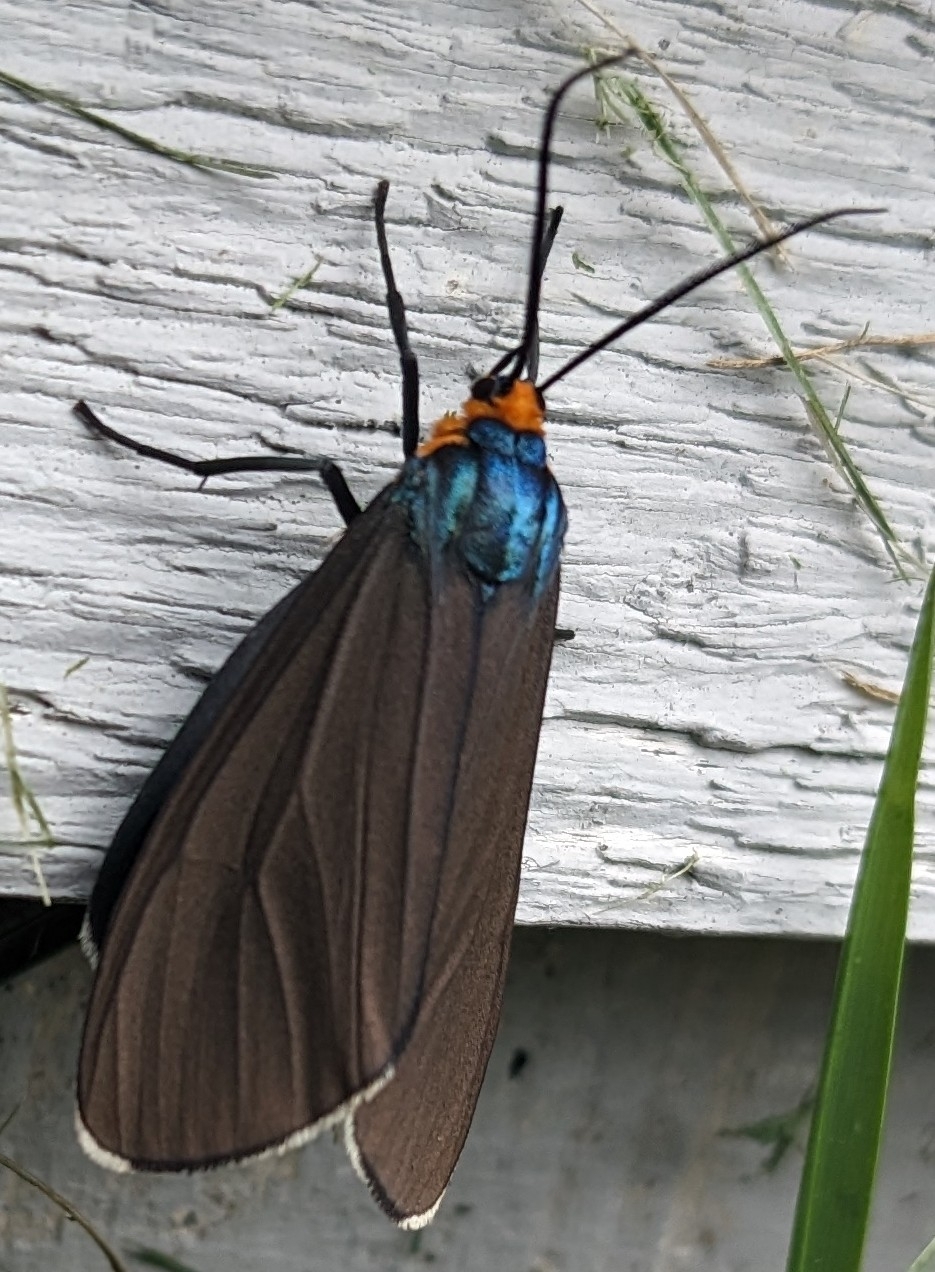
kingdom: Animalia
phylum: Arthropoda
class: Insecta
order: Lepidoptera
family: Erebidae
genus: Ctenucha
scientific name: Ctenucha virginica
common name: Virginia ctenucha moth
